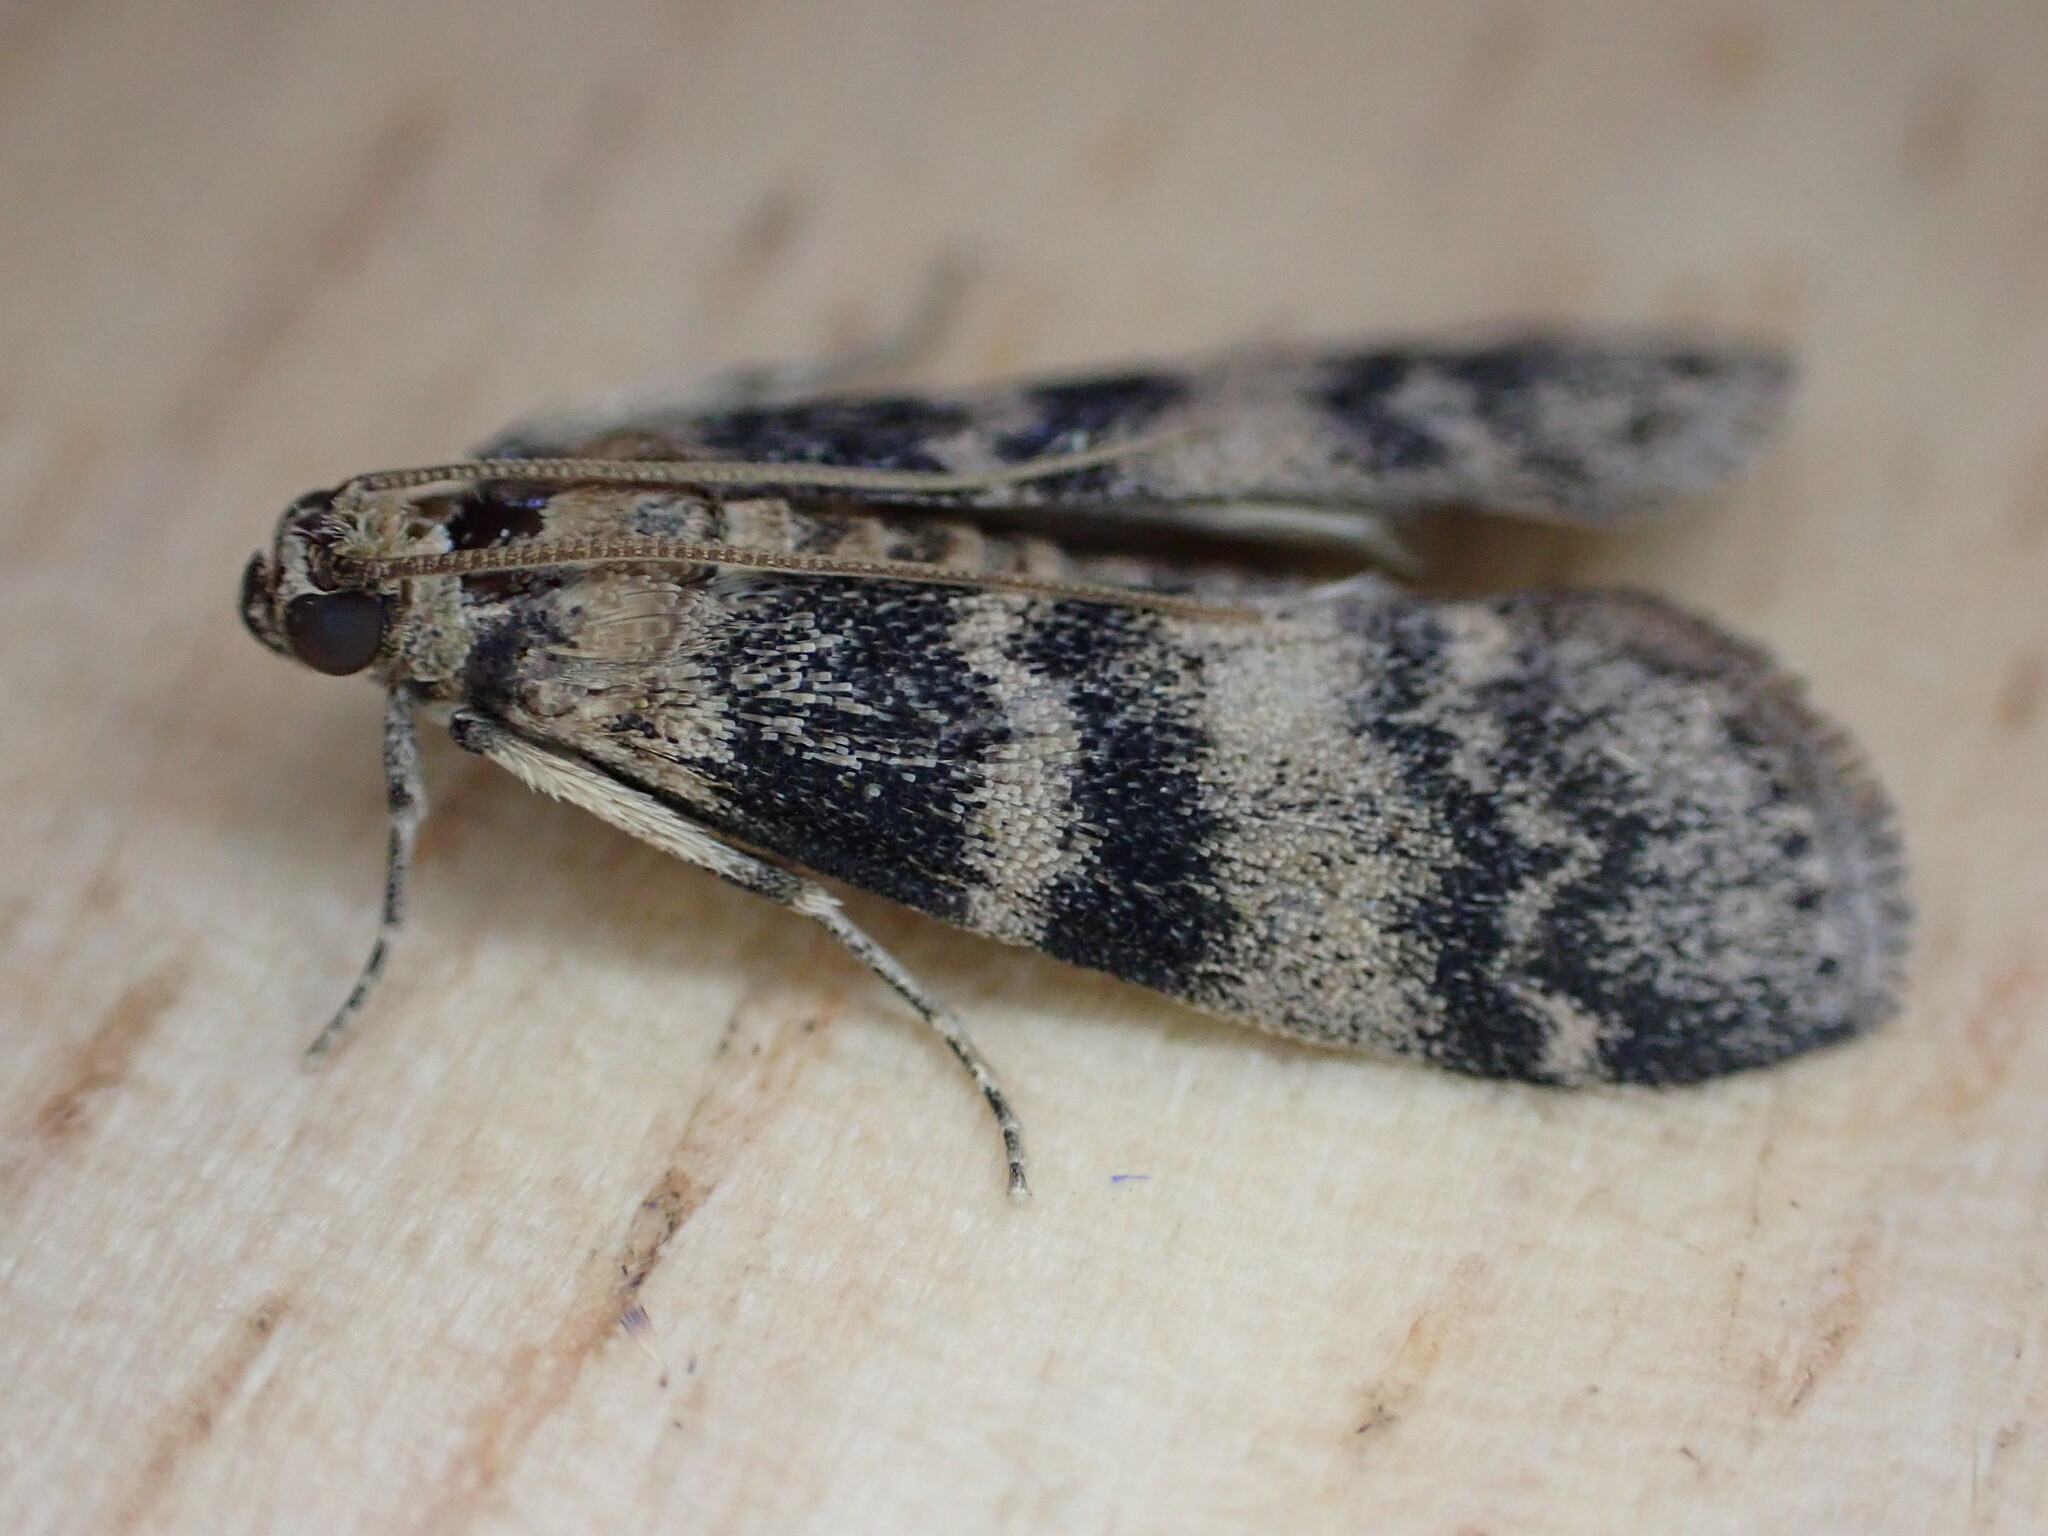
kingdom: Animalia
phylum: Arthropoda
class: Insecta
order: Lepidoptera
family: Pyralidae
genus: Euzophera
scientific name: Euzophera pinguis
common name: Ash-bark knot-horn
